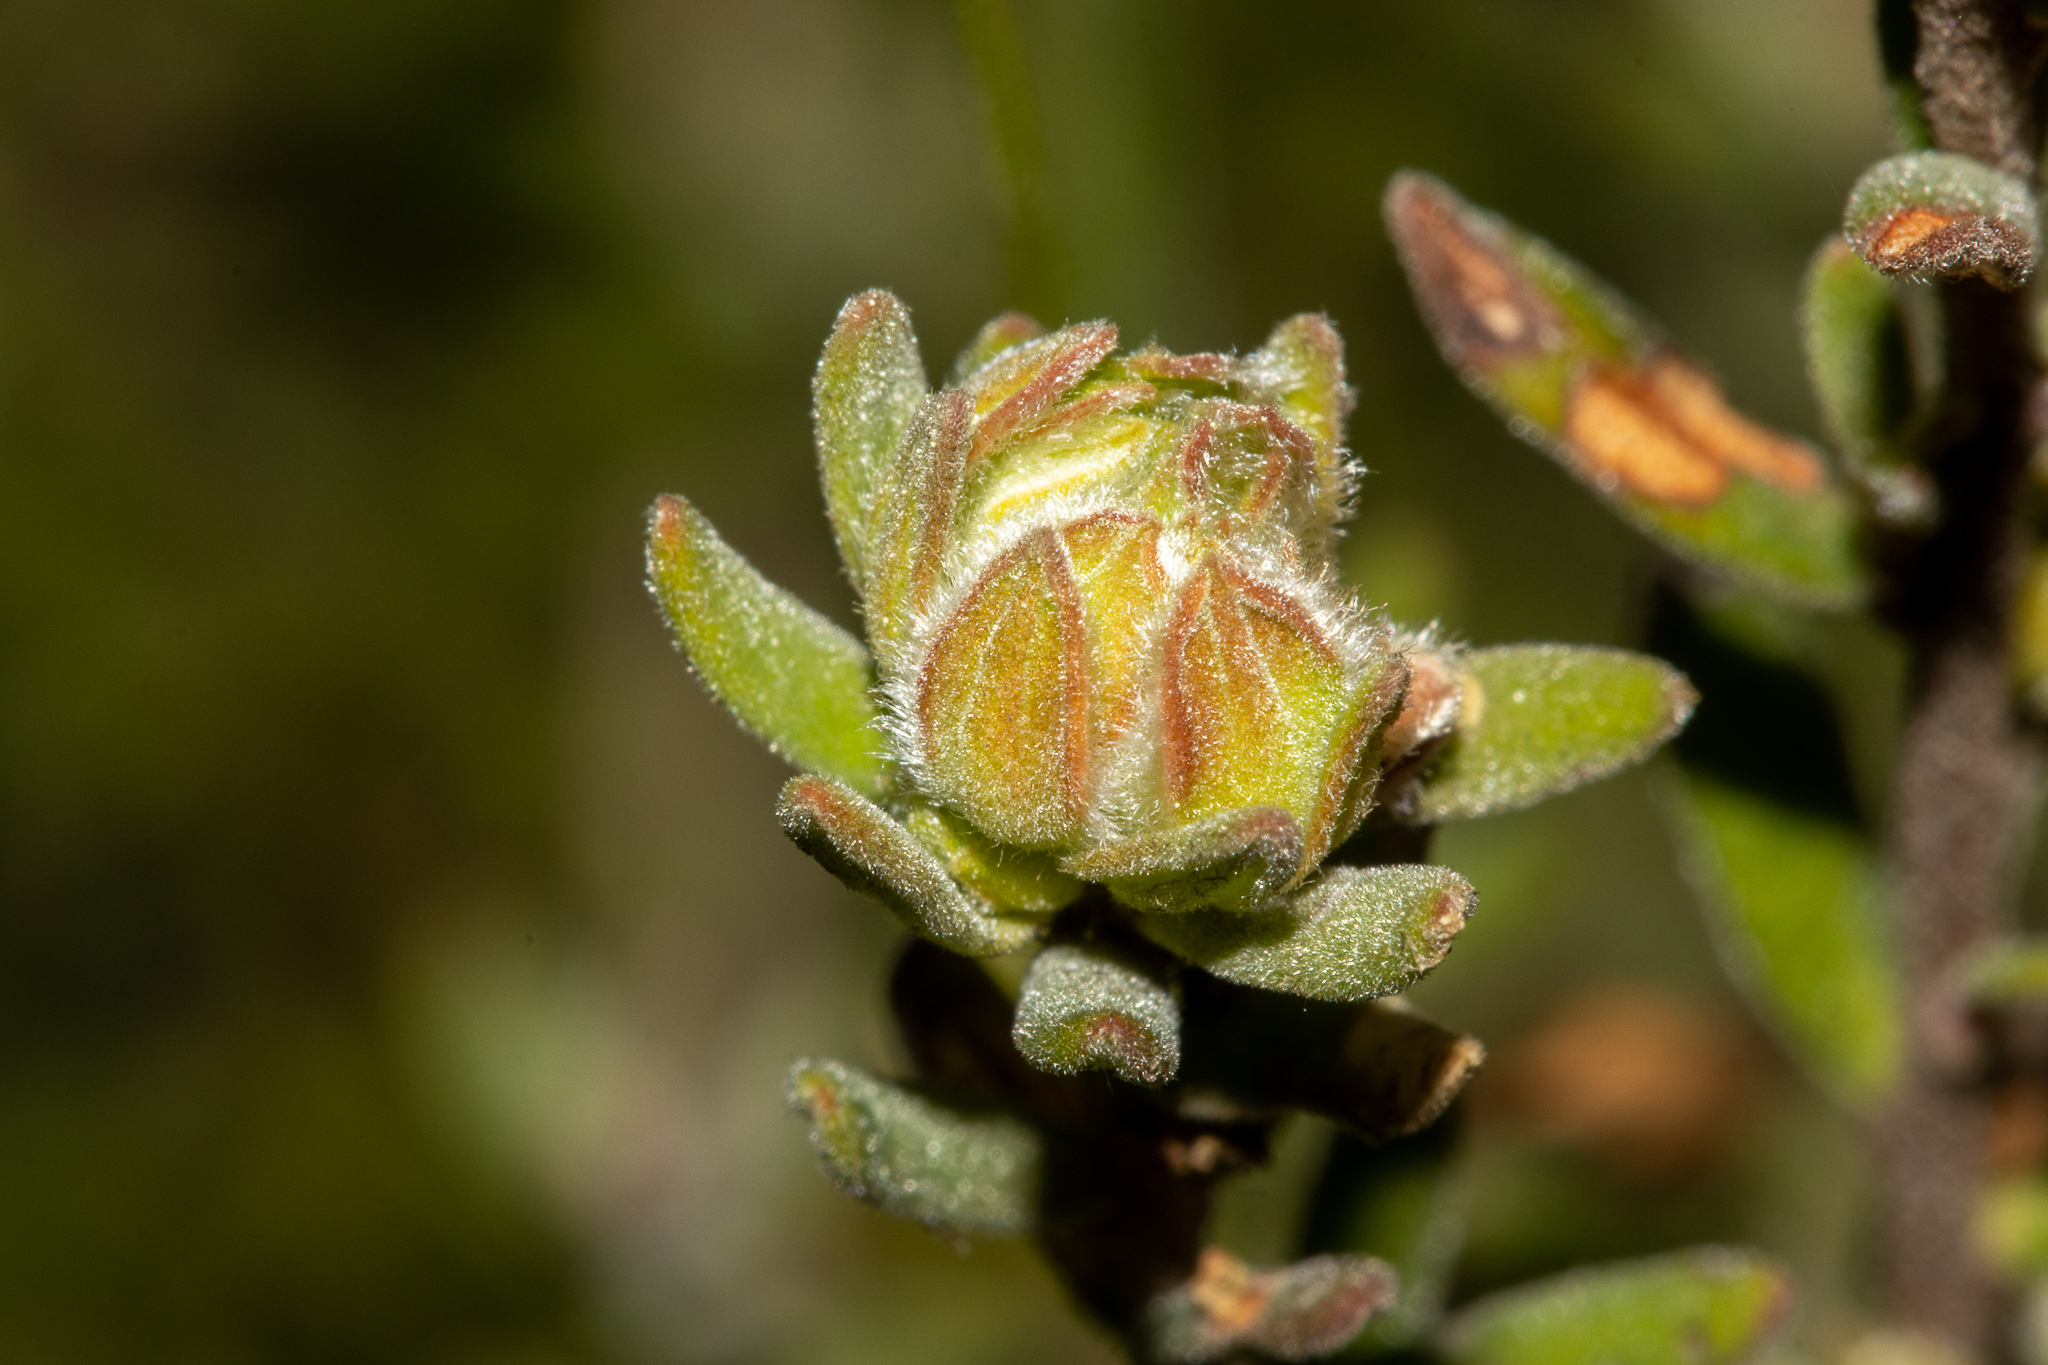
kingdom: Plantae
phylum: Tracheophyta
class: Magnoliopsida
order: Dilleniales
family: Dilleniaceae
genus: Hibbertia
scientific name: Hibbertia crinita
